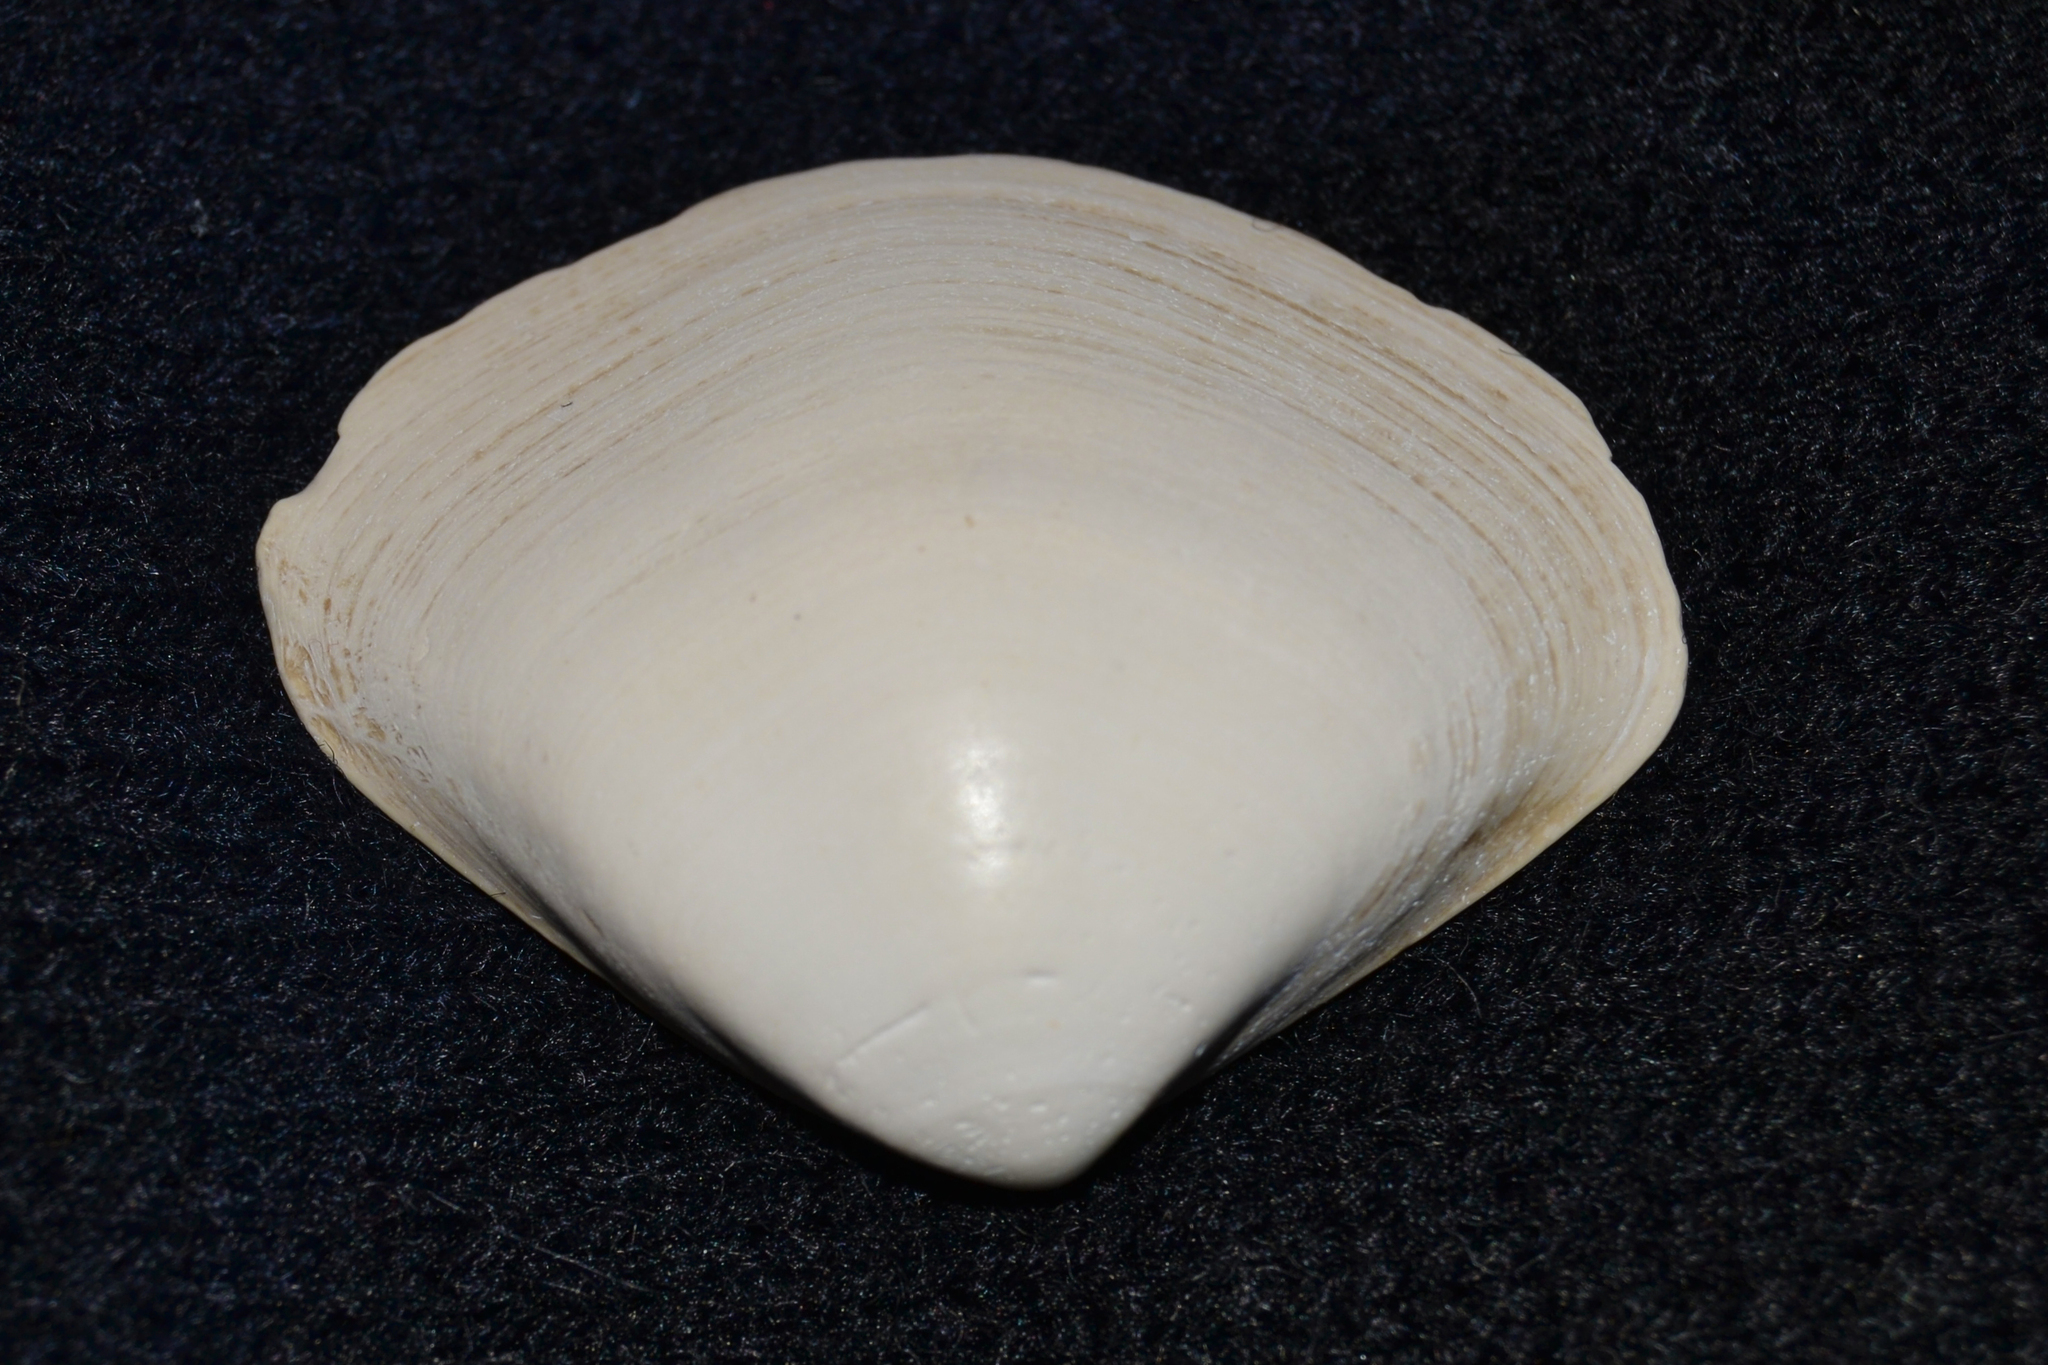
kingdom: Animalia
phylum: Mollusca
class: Bivalvia
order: Venerida
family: Mactridae
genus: Spisula
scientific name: Spisula solidissima
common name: Atlantic surf clam
